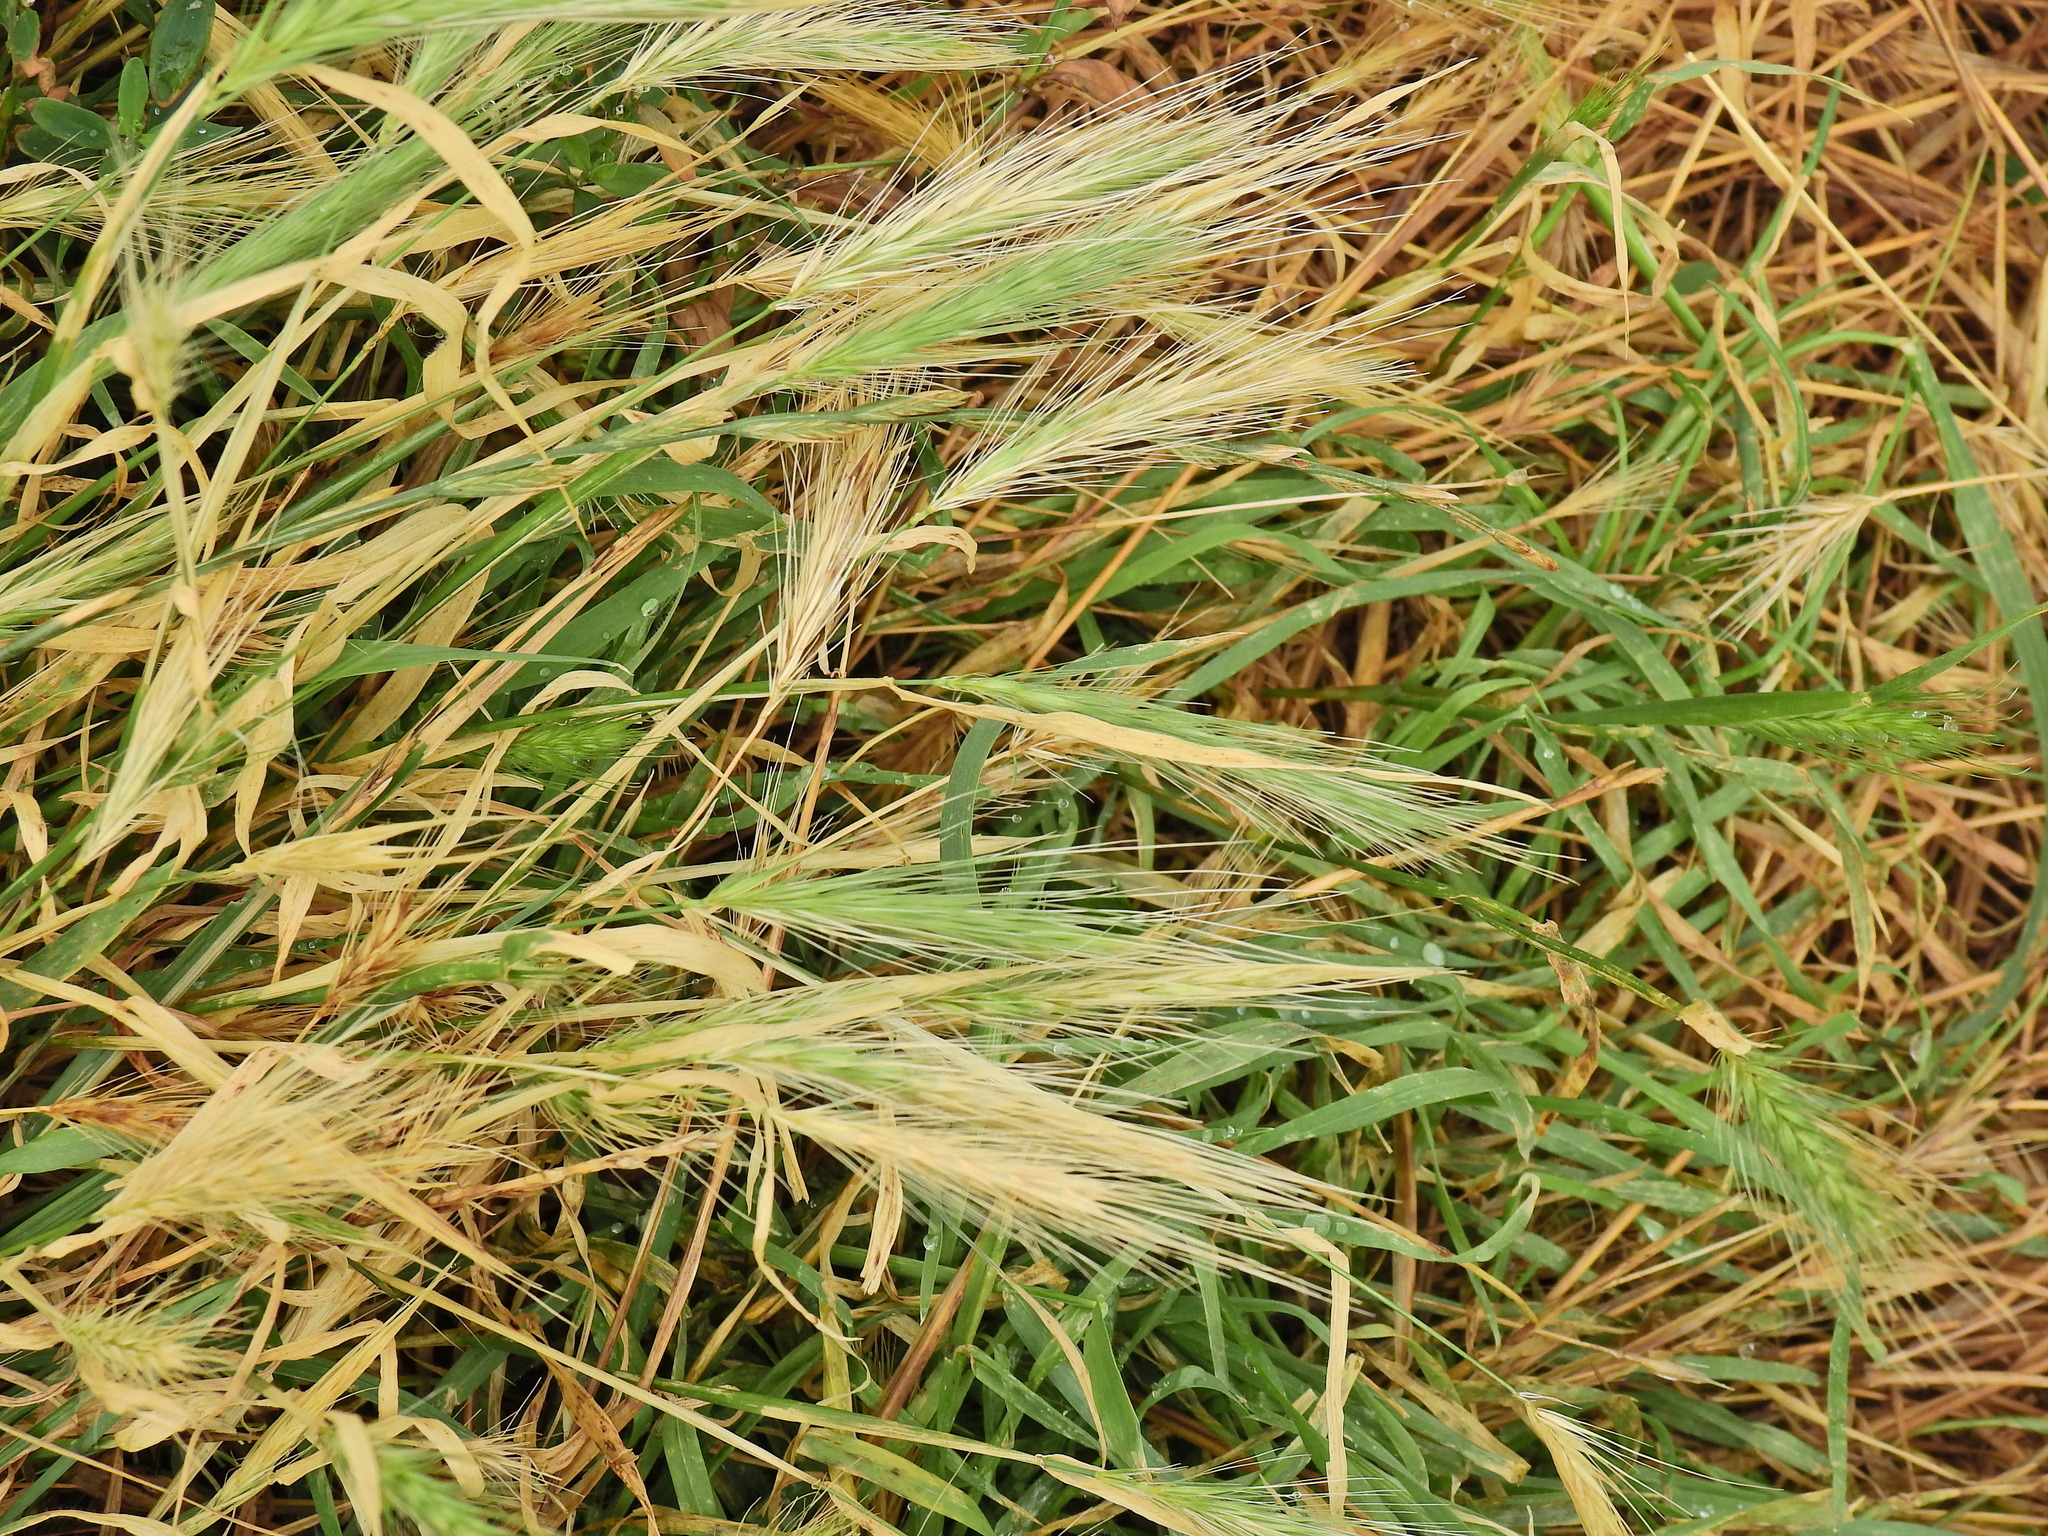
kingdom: Plantae
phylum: Tracheophyta
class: Liliopsida
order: Poales
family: Poaceae
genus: Hordeum
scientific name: Hordeum murinum
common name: Wall barley
